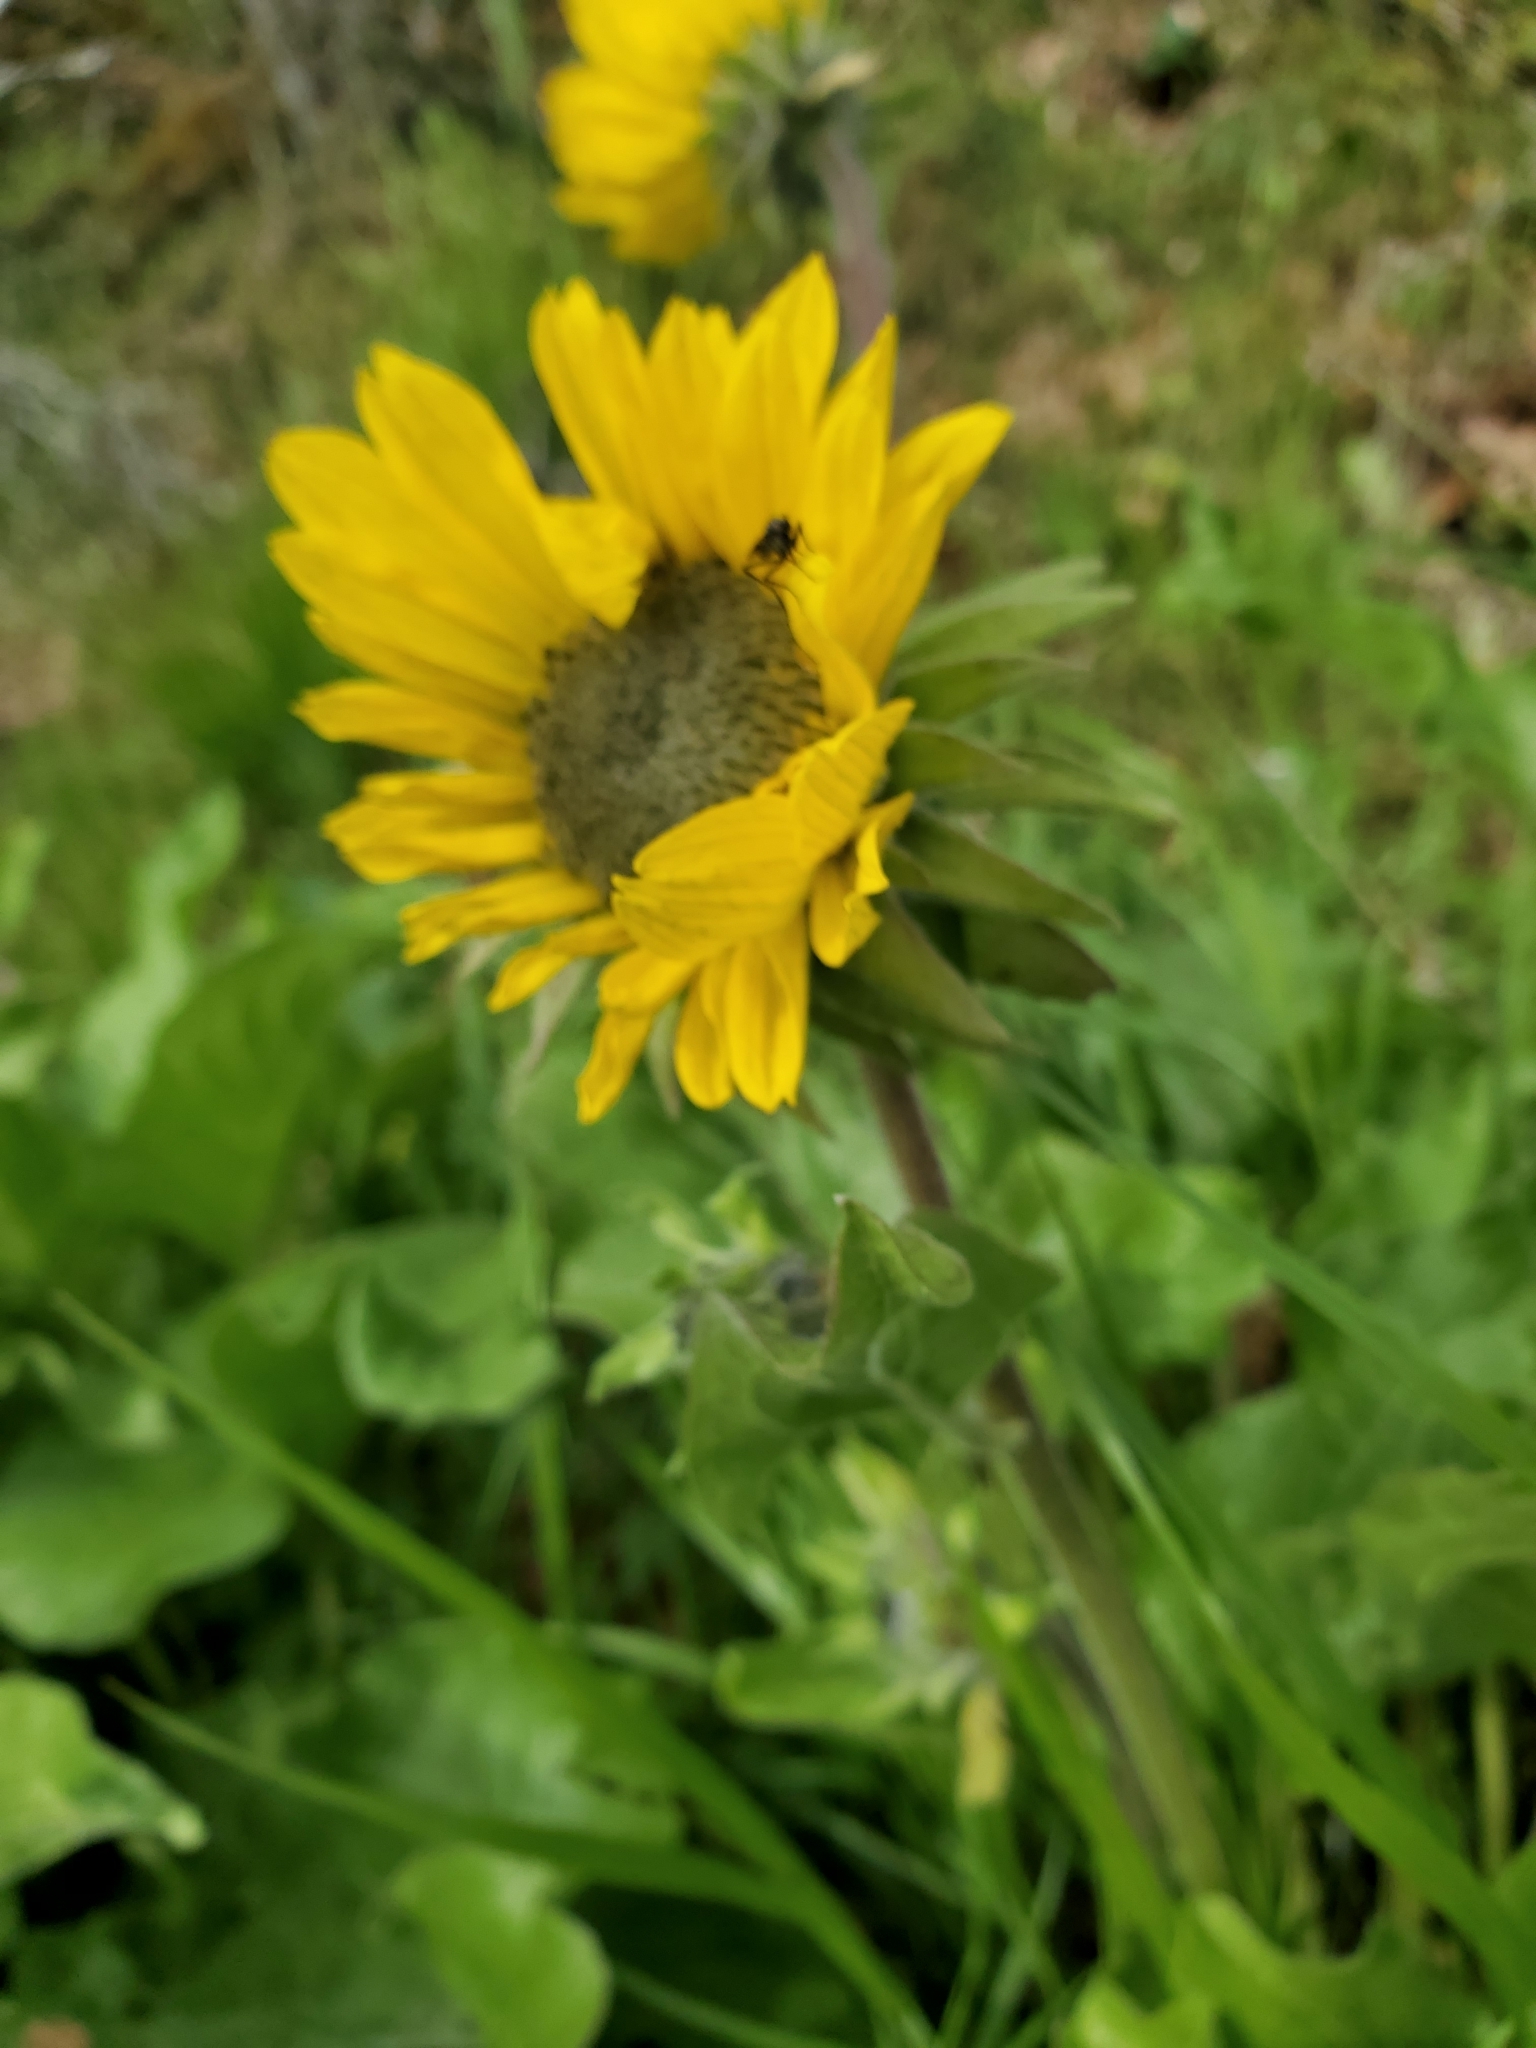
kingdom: Plantae
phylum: Tracheophyta
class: Magnoliopsida
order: Asterales
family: Asteraceae
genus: Balsamorhiza
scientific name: Balsamorhiza deltoidea
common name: Deltoid balsamroot
